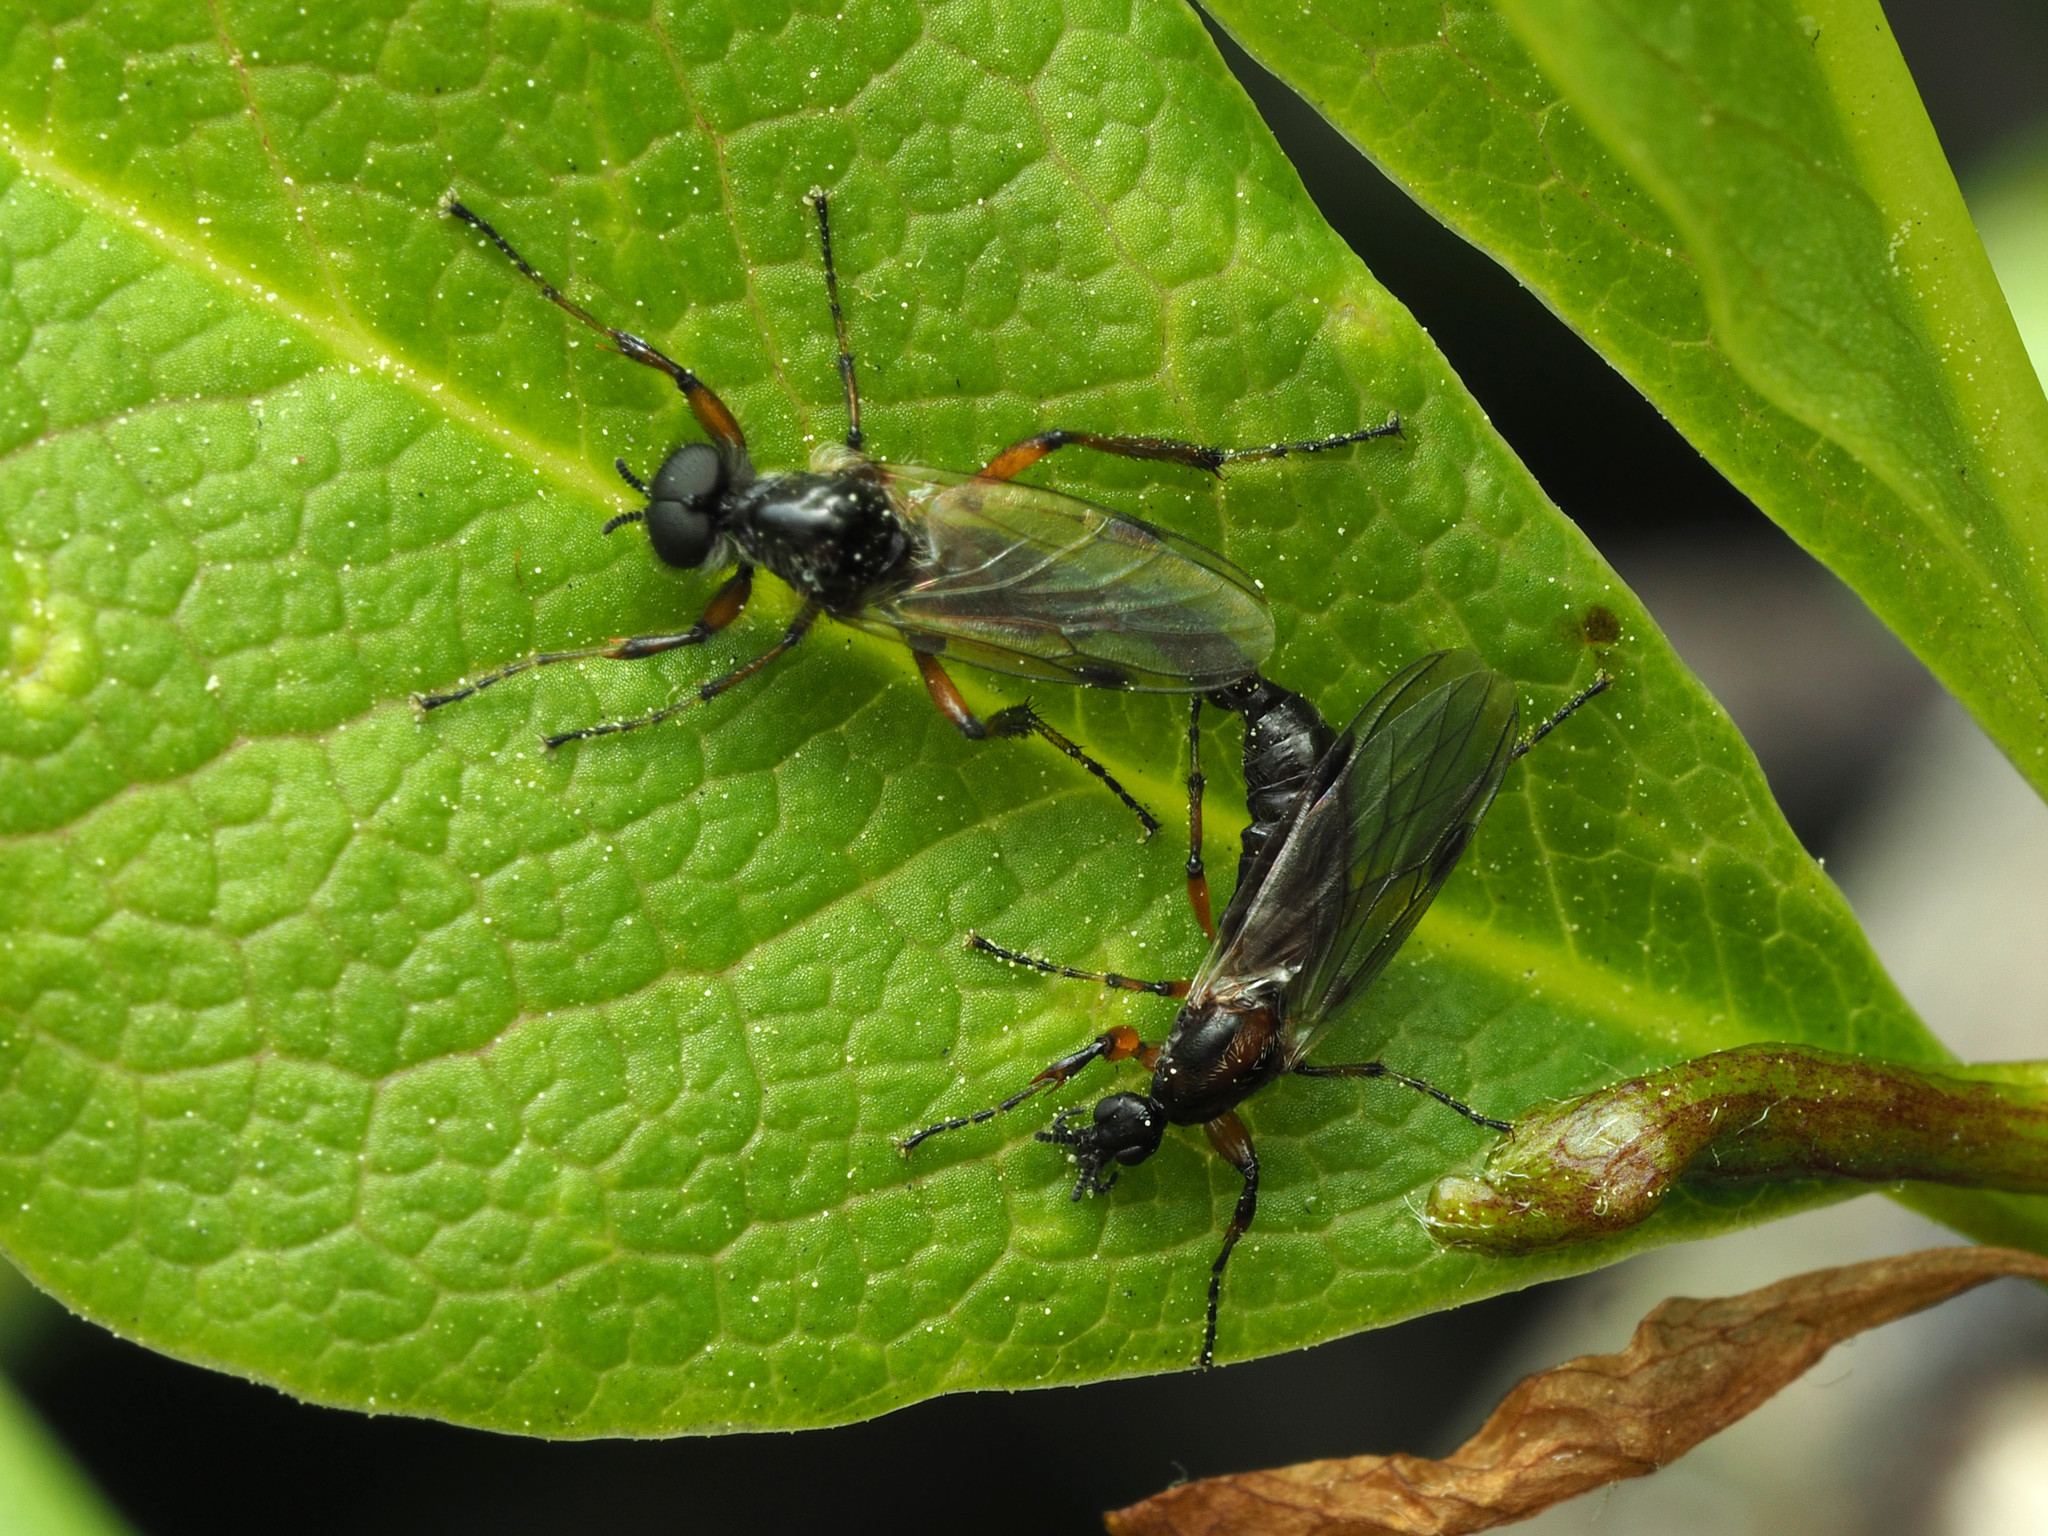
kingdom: Animalia
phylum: Arthropoda
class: Insecta
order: Diptera
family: Bibionidae
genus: Bibio
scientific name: Bibio articulatus
